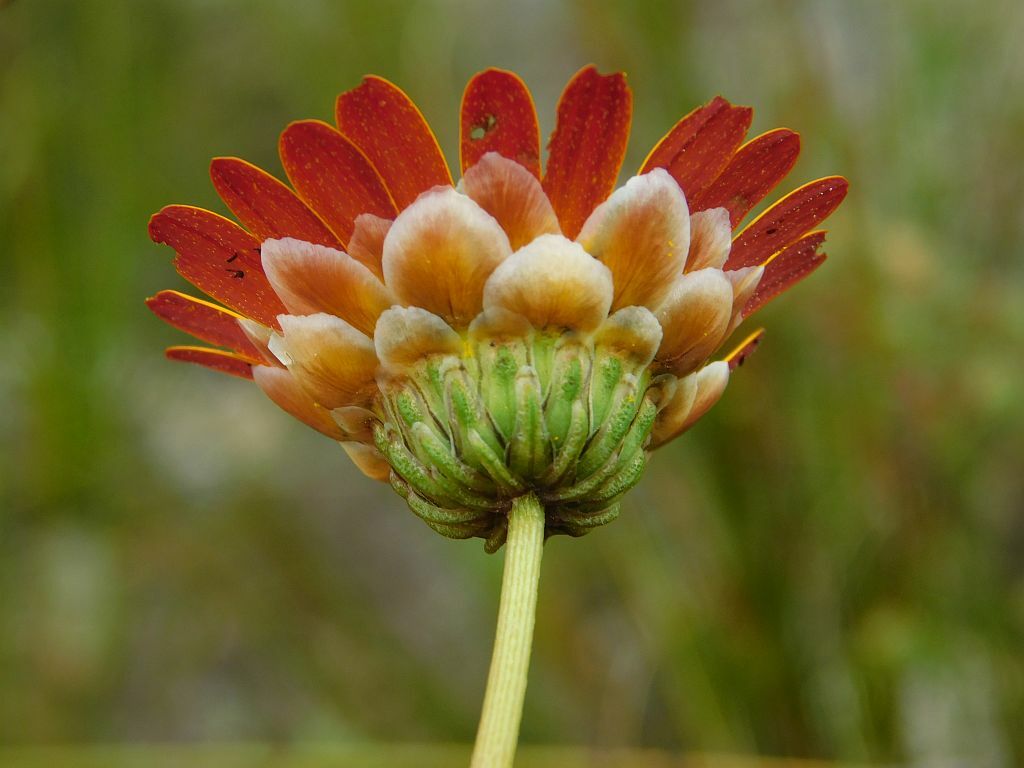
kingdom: Plantae
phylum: Tracheophyta
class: Magnoliopsida
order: Asterales
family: Asteraceae
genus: Ursinia
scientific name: Ursinia paleacea
